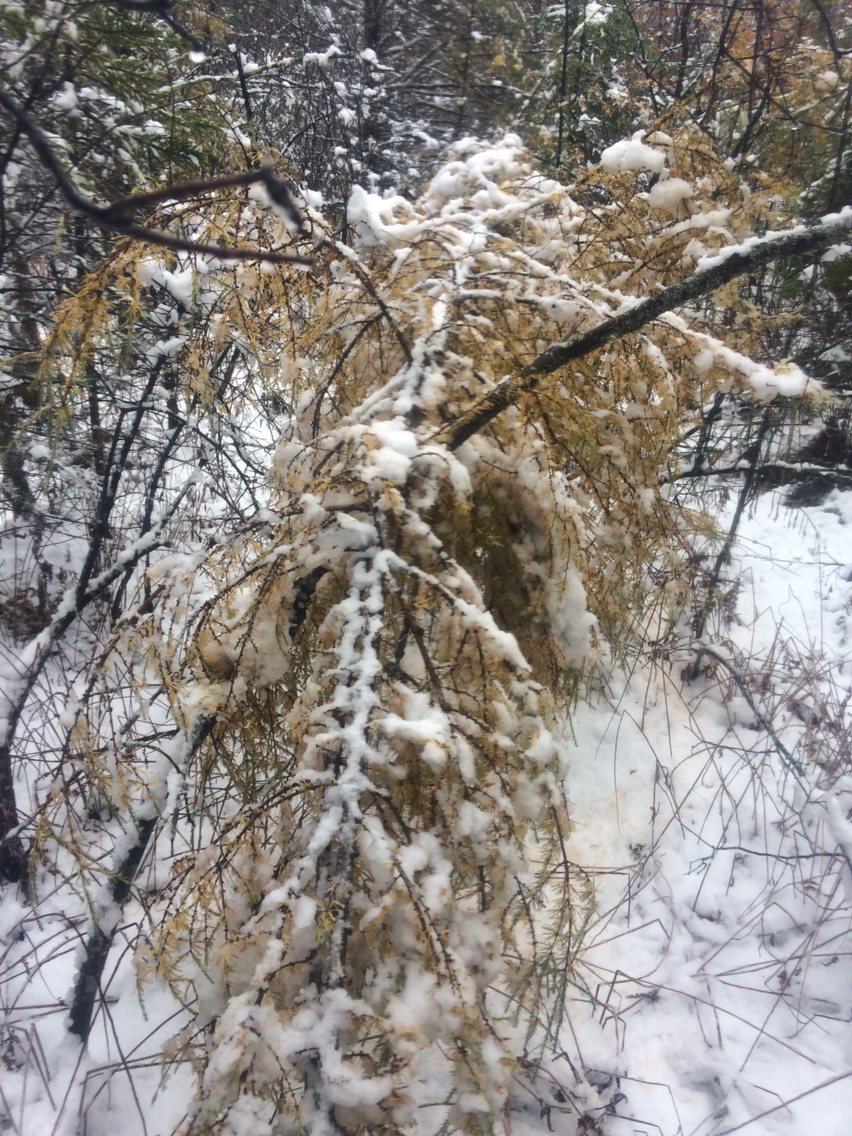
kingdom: Plantae
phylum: Tracheophyta
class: Pinopsida
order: Pinales
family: Pinaceae
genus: Larix
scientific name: Larix laricina
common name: American larch
